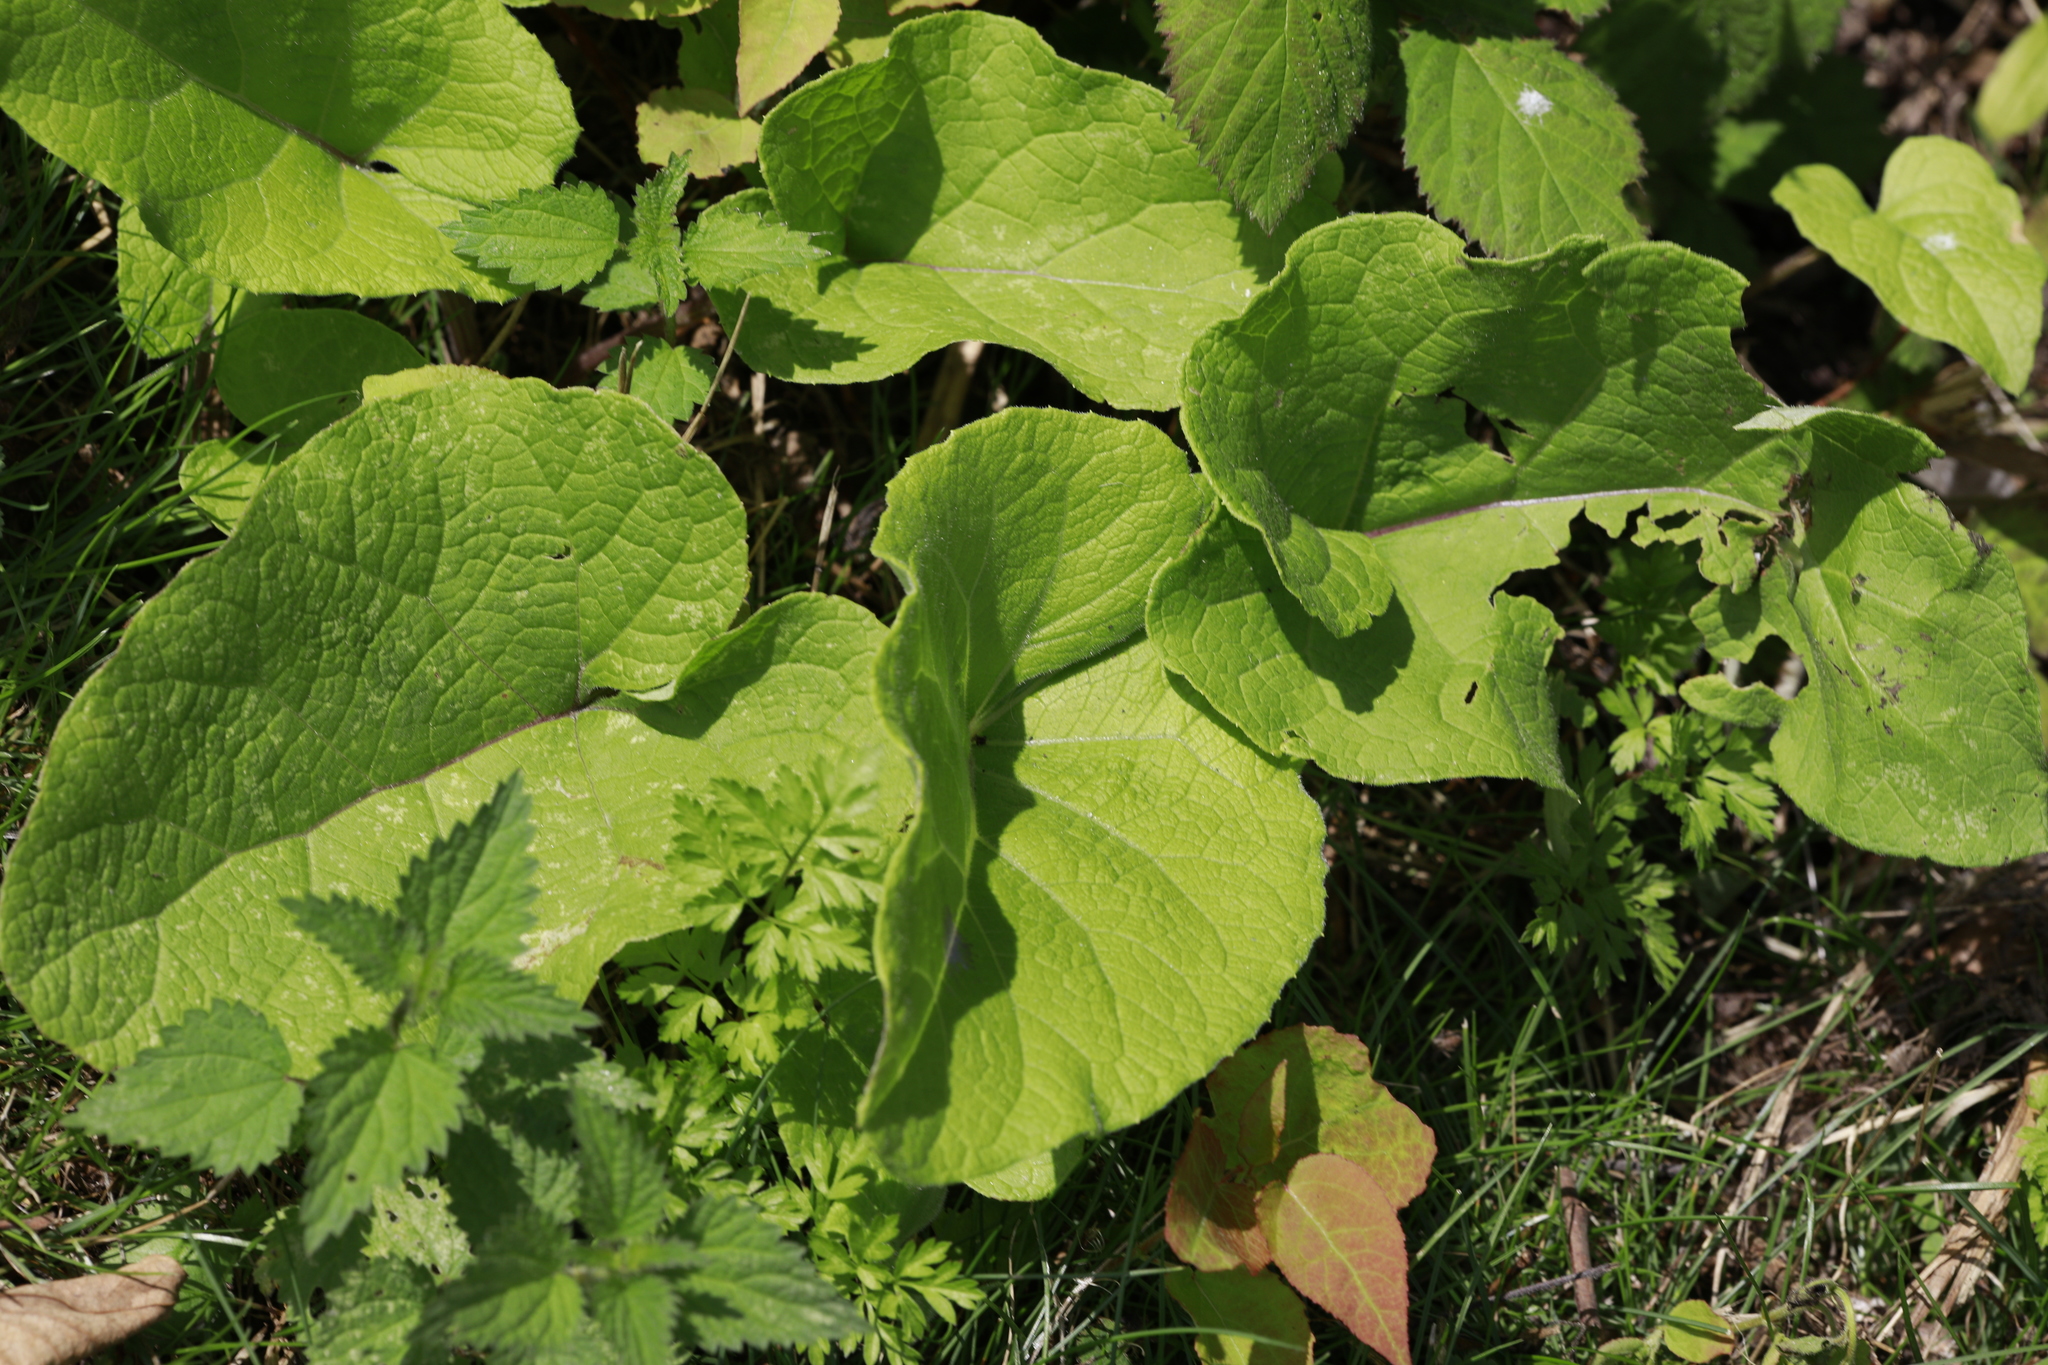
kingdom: Plantae
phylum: Tracheophyta
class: Magnoliopsida
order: Asterales
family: Asteraceae
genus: Arctium
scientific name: Arctium minus
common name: Lesser burdock
